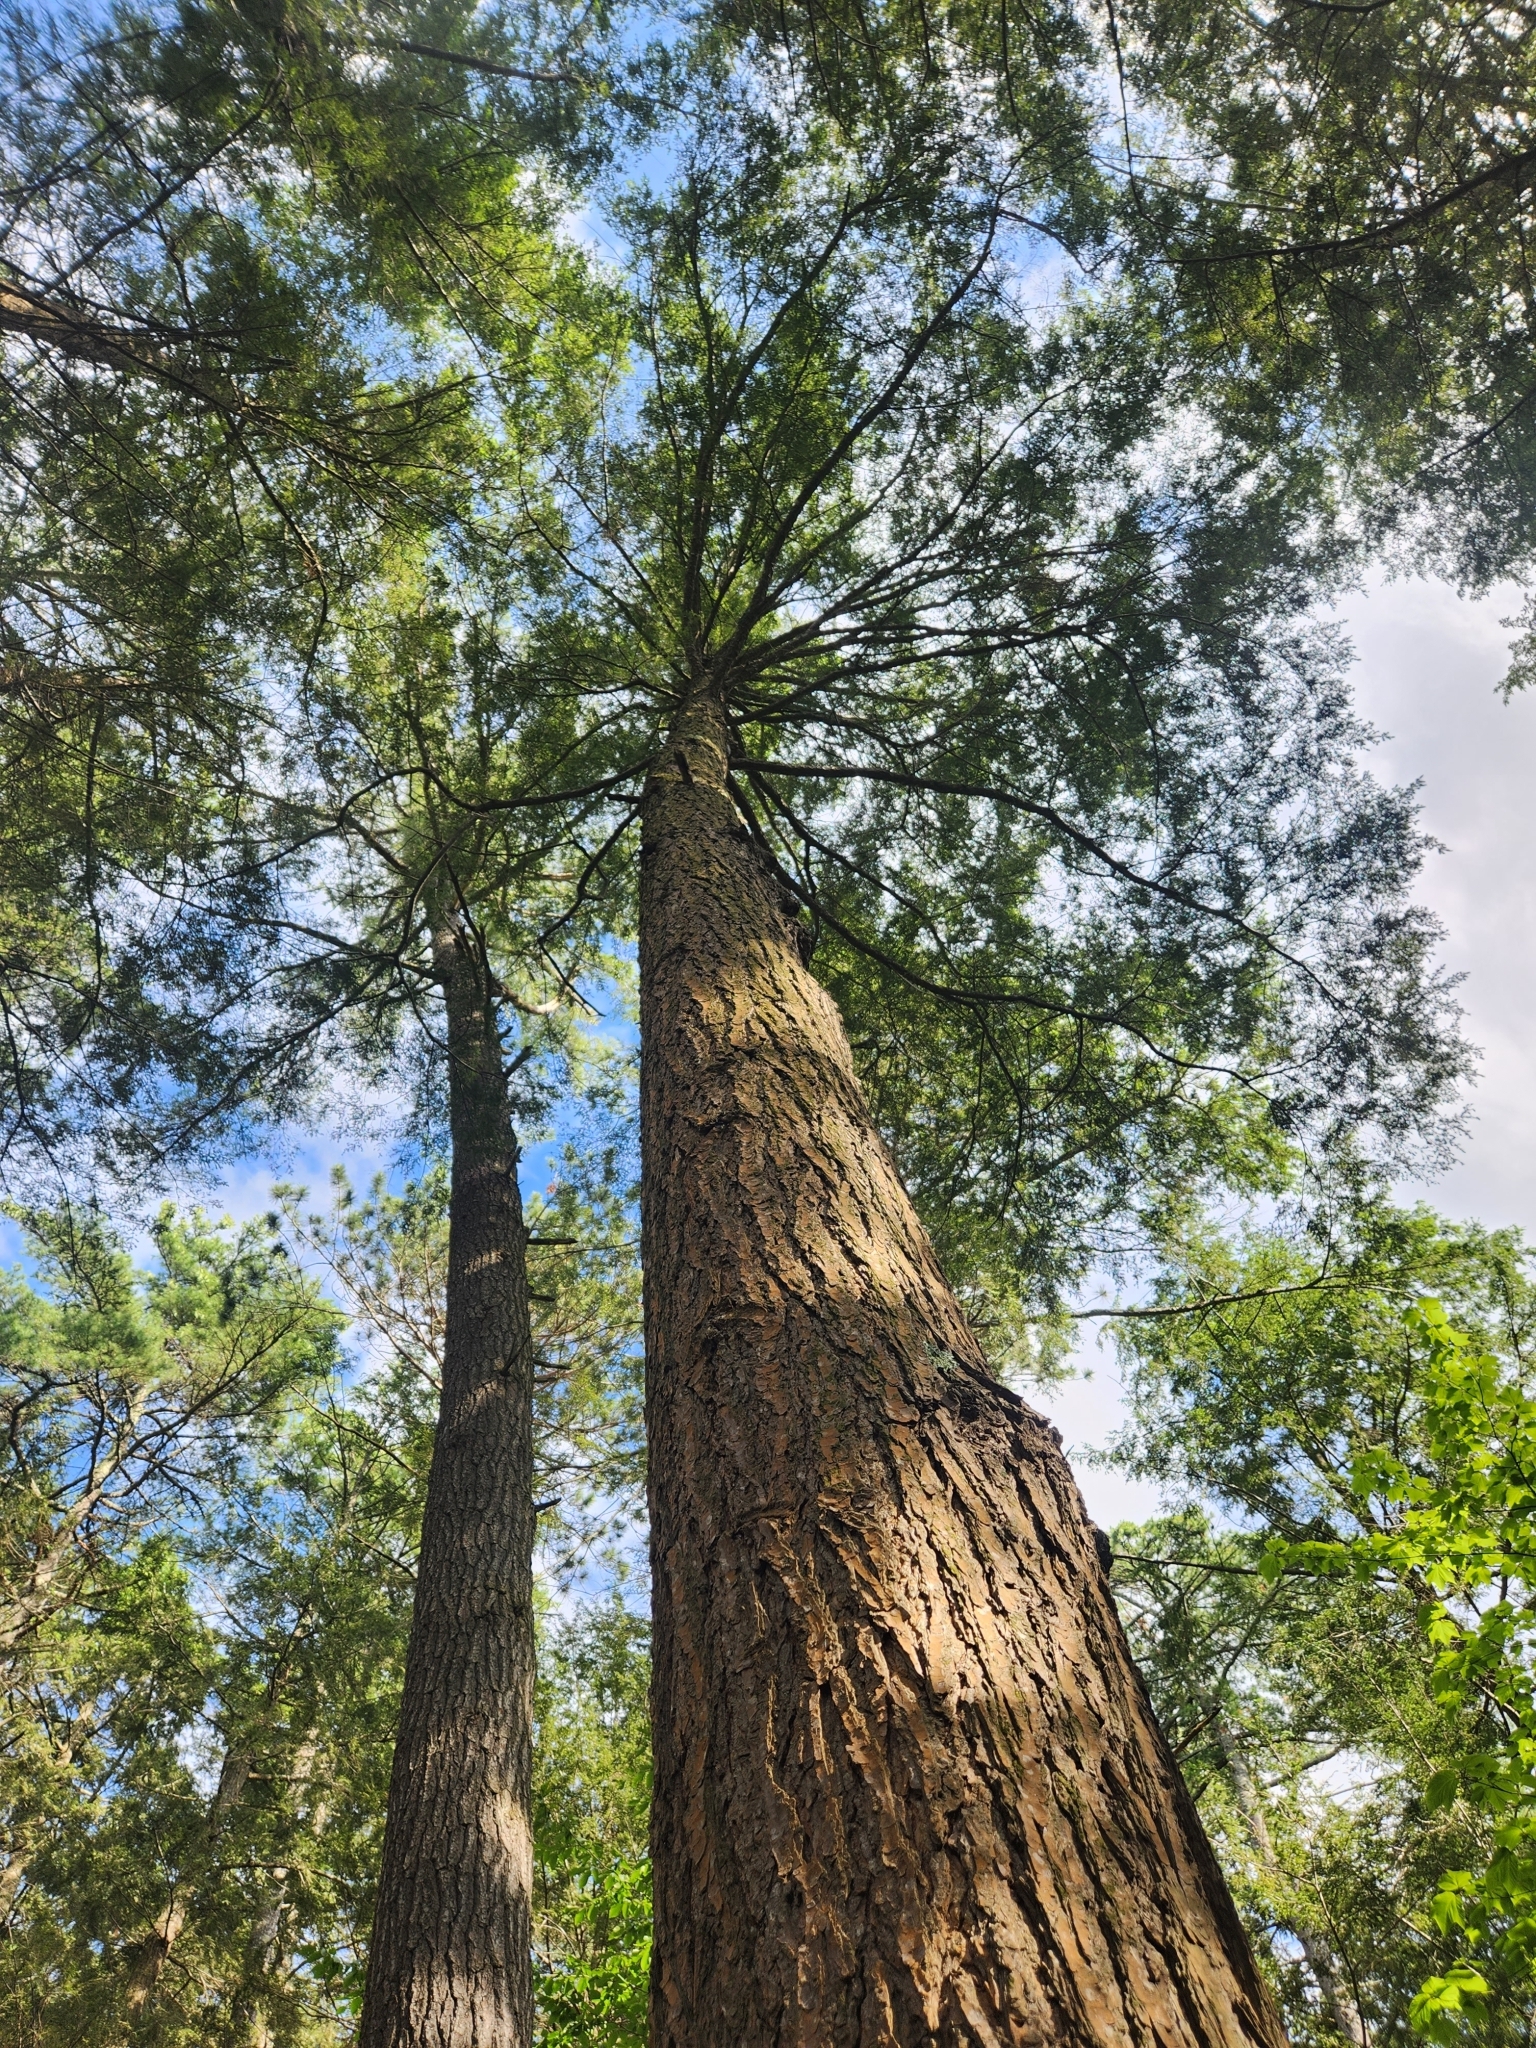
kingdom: Plantae
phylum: Tracheophyta
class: Pinopsida
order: Pinales
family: Pinaceae
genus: Tsuga
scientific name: Tsuga canadensis
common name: Eastern hemlock
